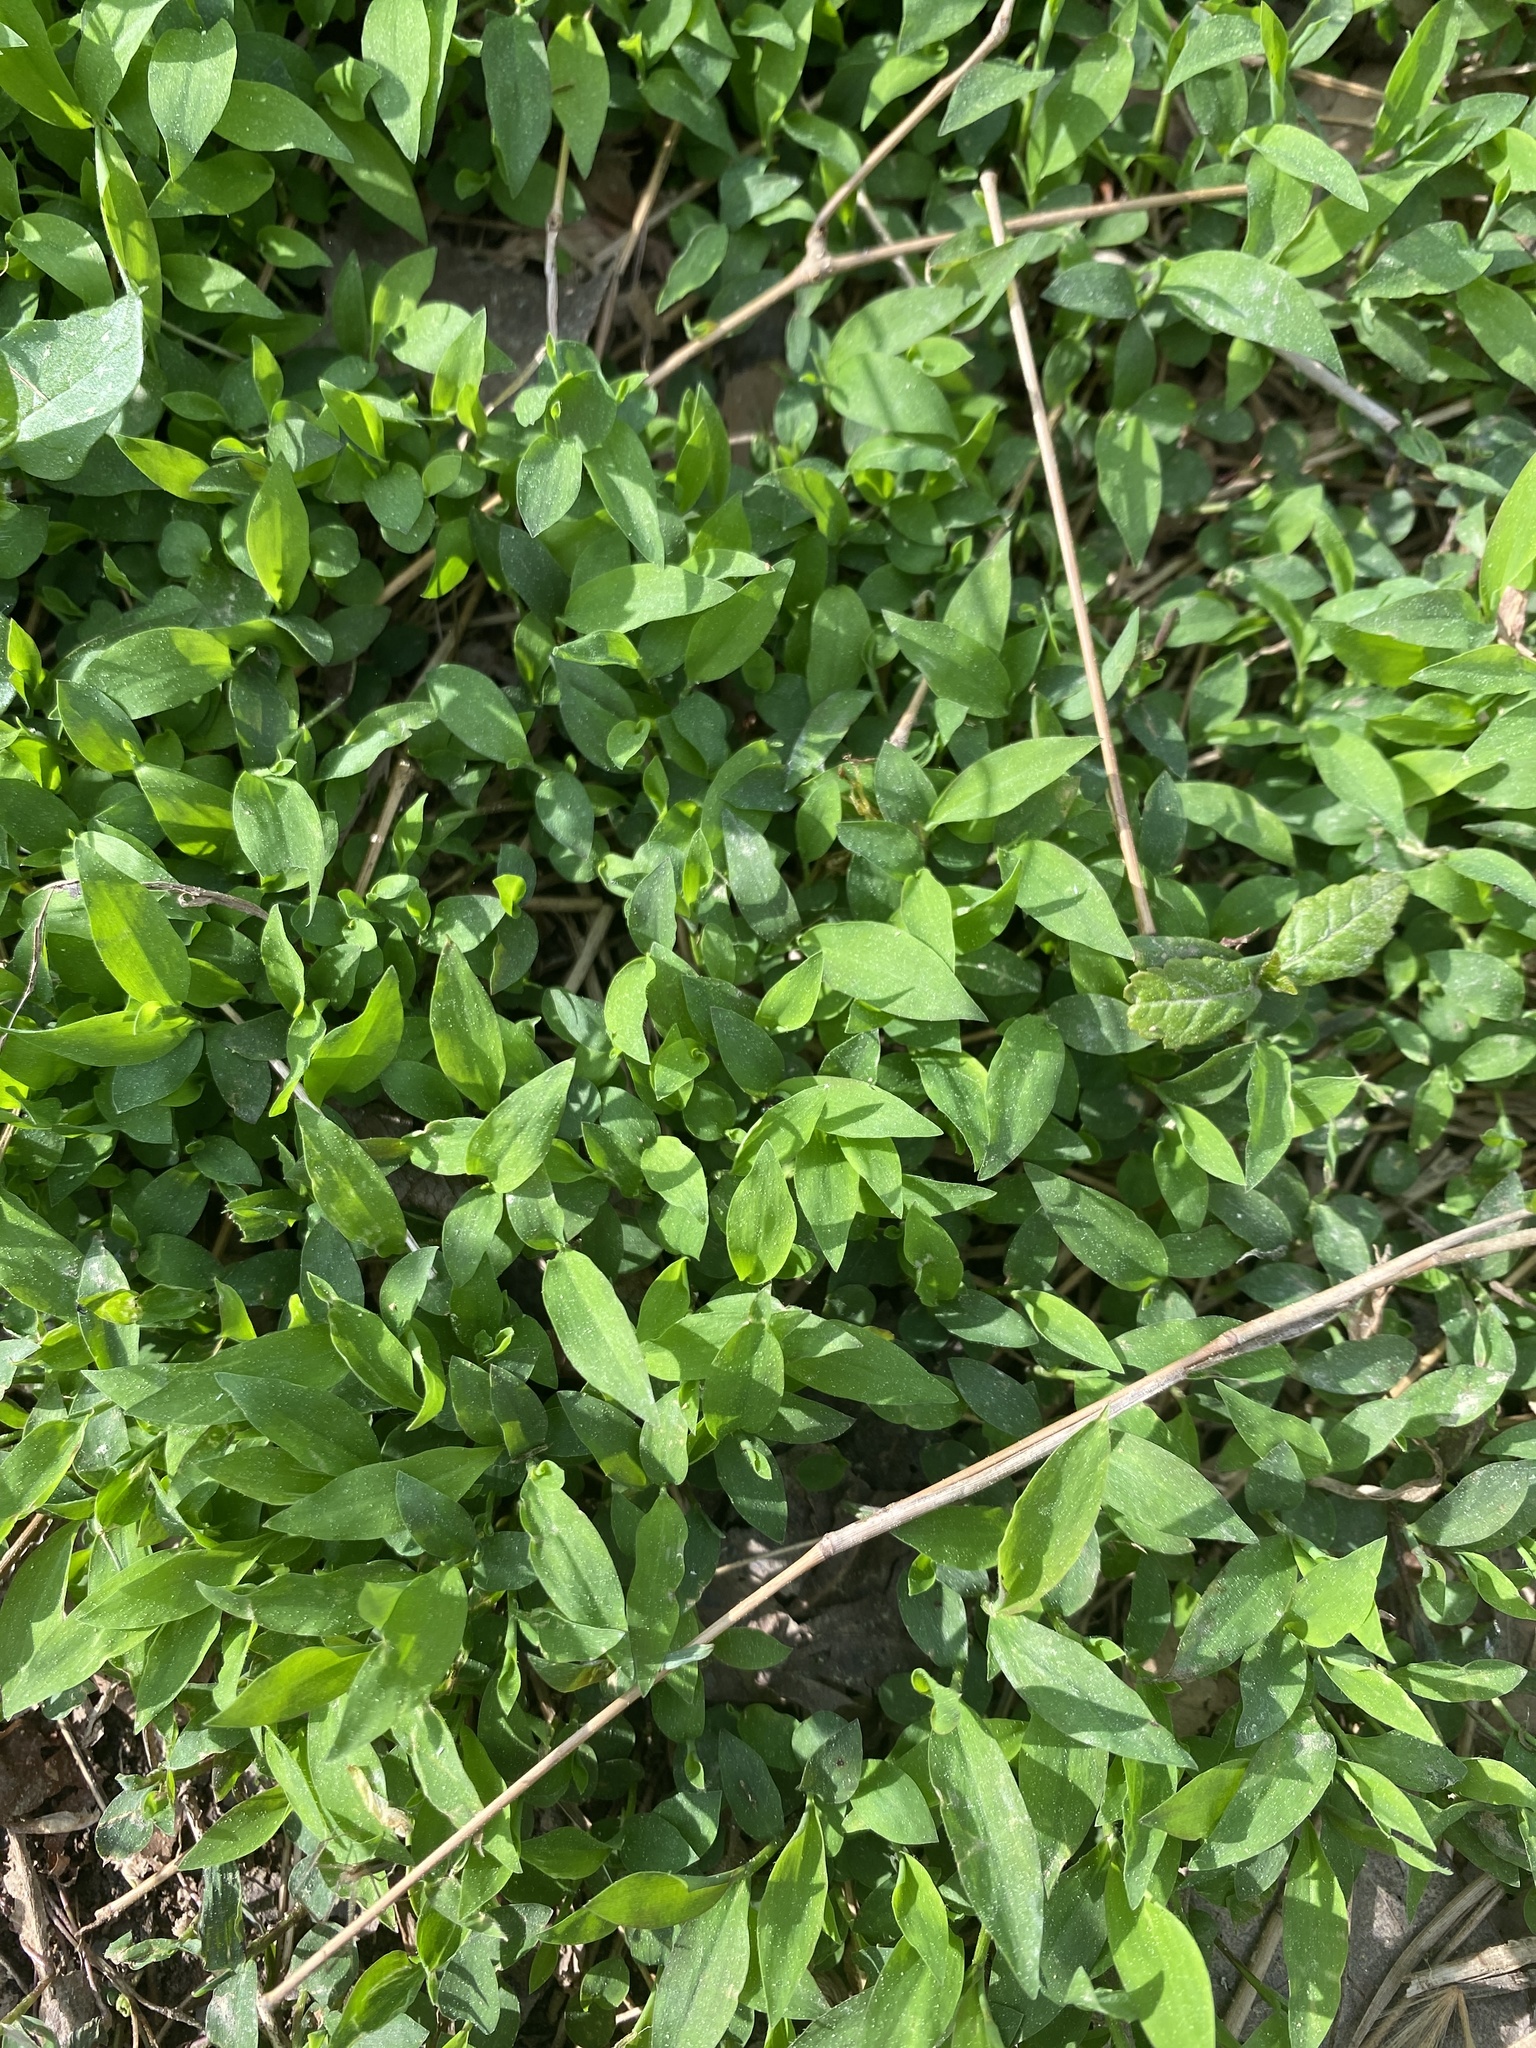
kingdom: Plantae
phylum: Tracheophyta
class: Liliopsida
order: Poales
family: Poaceae
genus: Microstegium
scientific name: Microstegium vimineum
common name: Japanese stiltgrass
